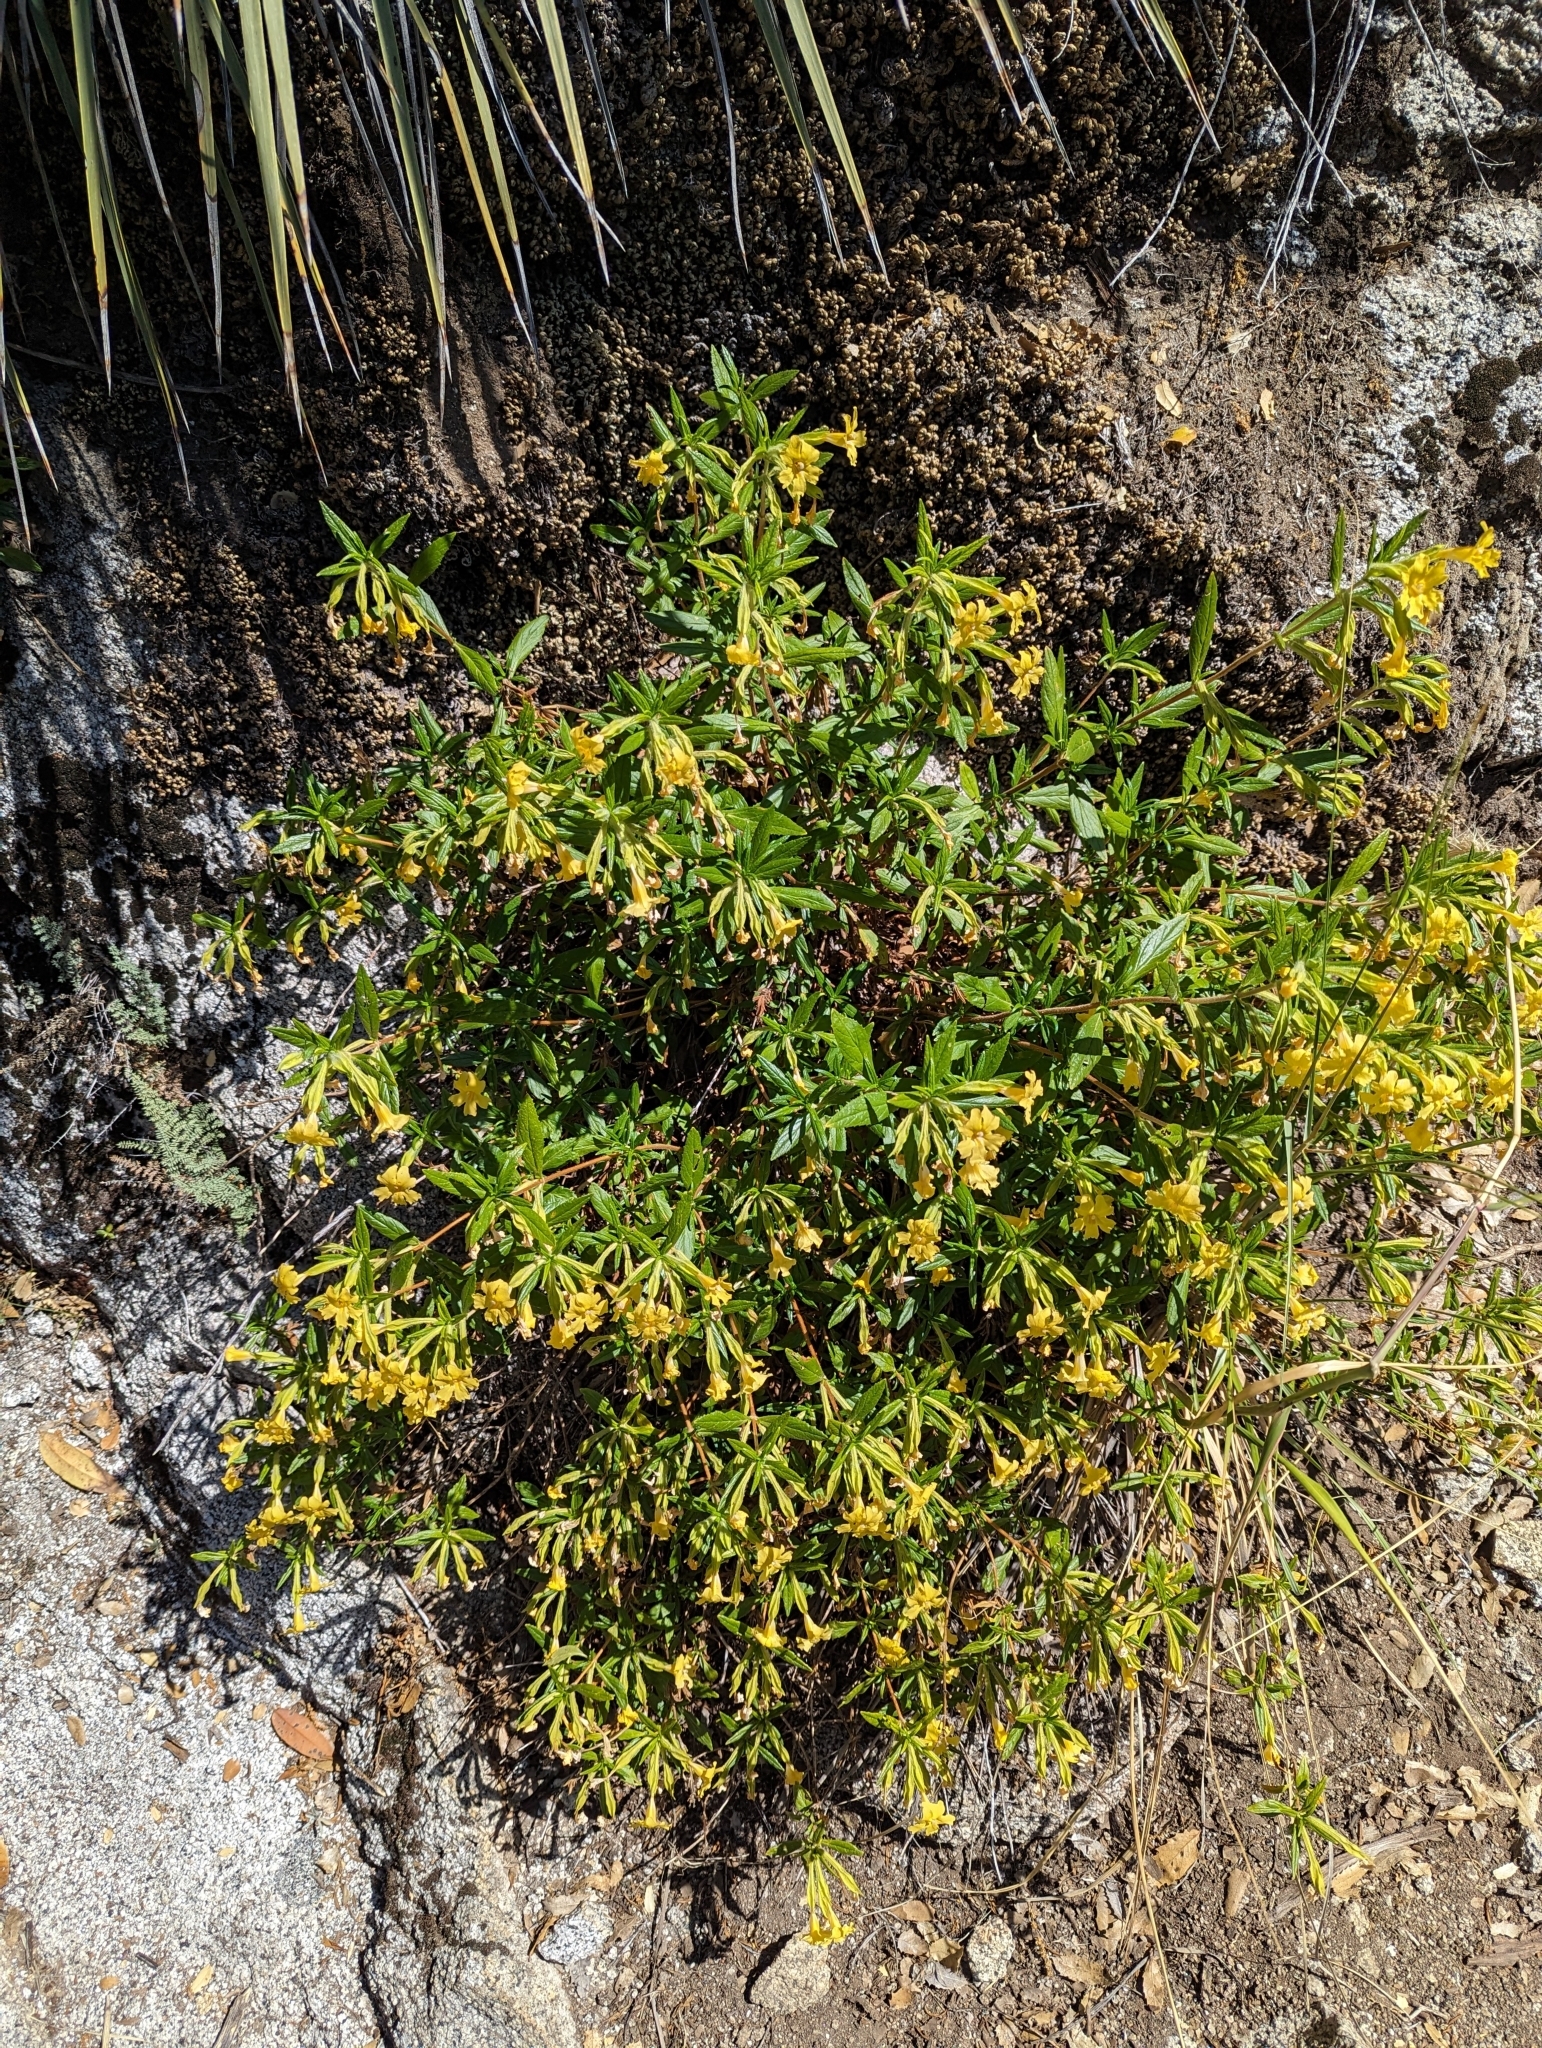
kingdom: Plantae
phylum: Tracheophyta
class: Magnoliopsida
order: Lamiales
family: Phrymaceae
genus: Diplacus
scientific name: Diplacus calycinus
